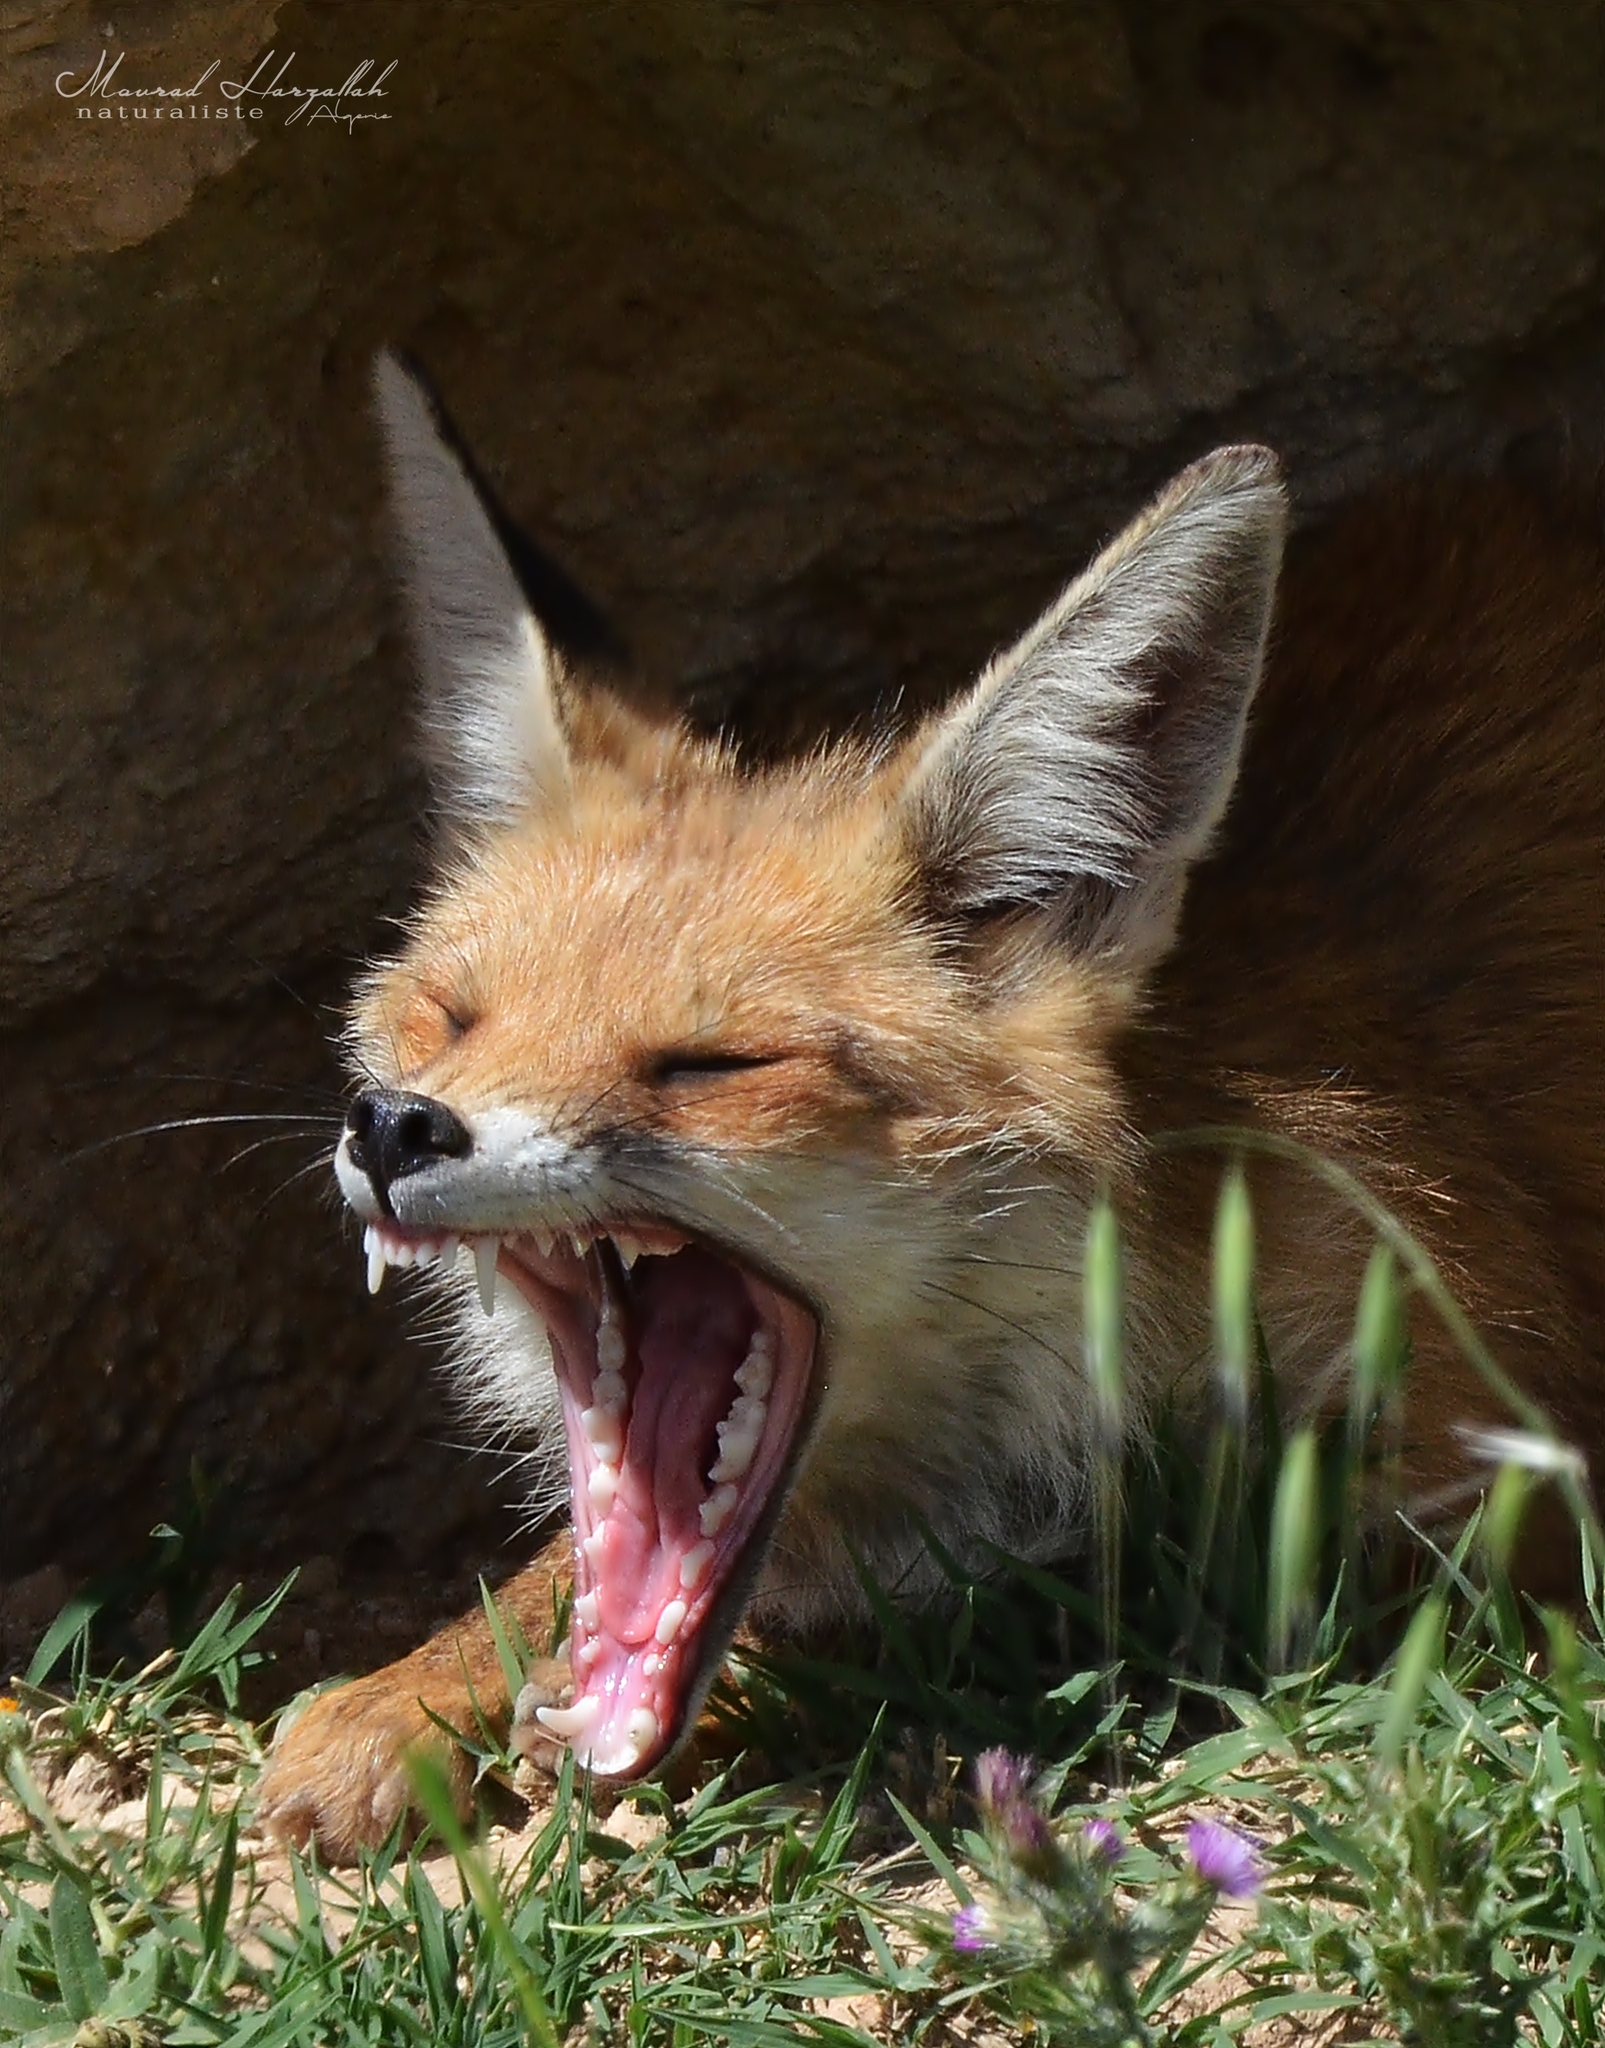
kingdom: Animalia
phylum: Chordata
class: Mammalia
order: Carnivora
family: Canidae
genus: Vulpes
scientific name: Vulpes vulpes
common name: Red fox
